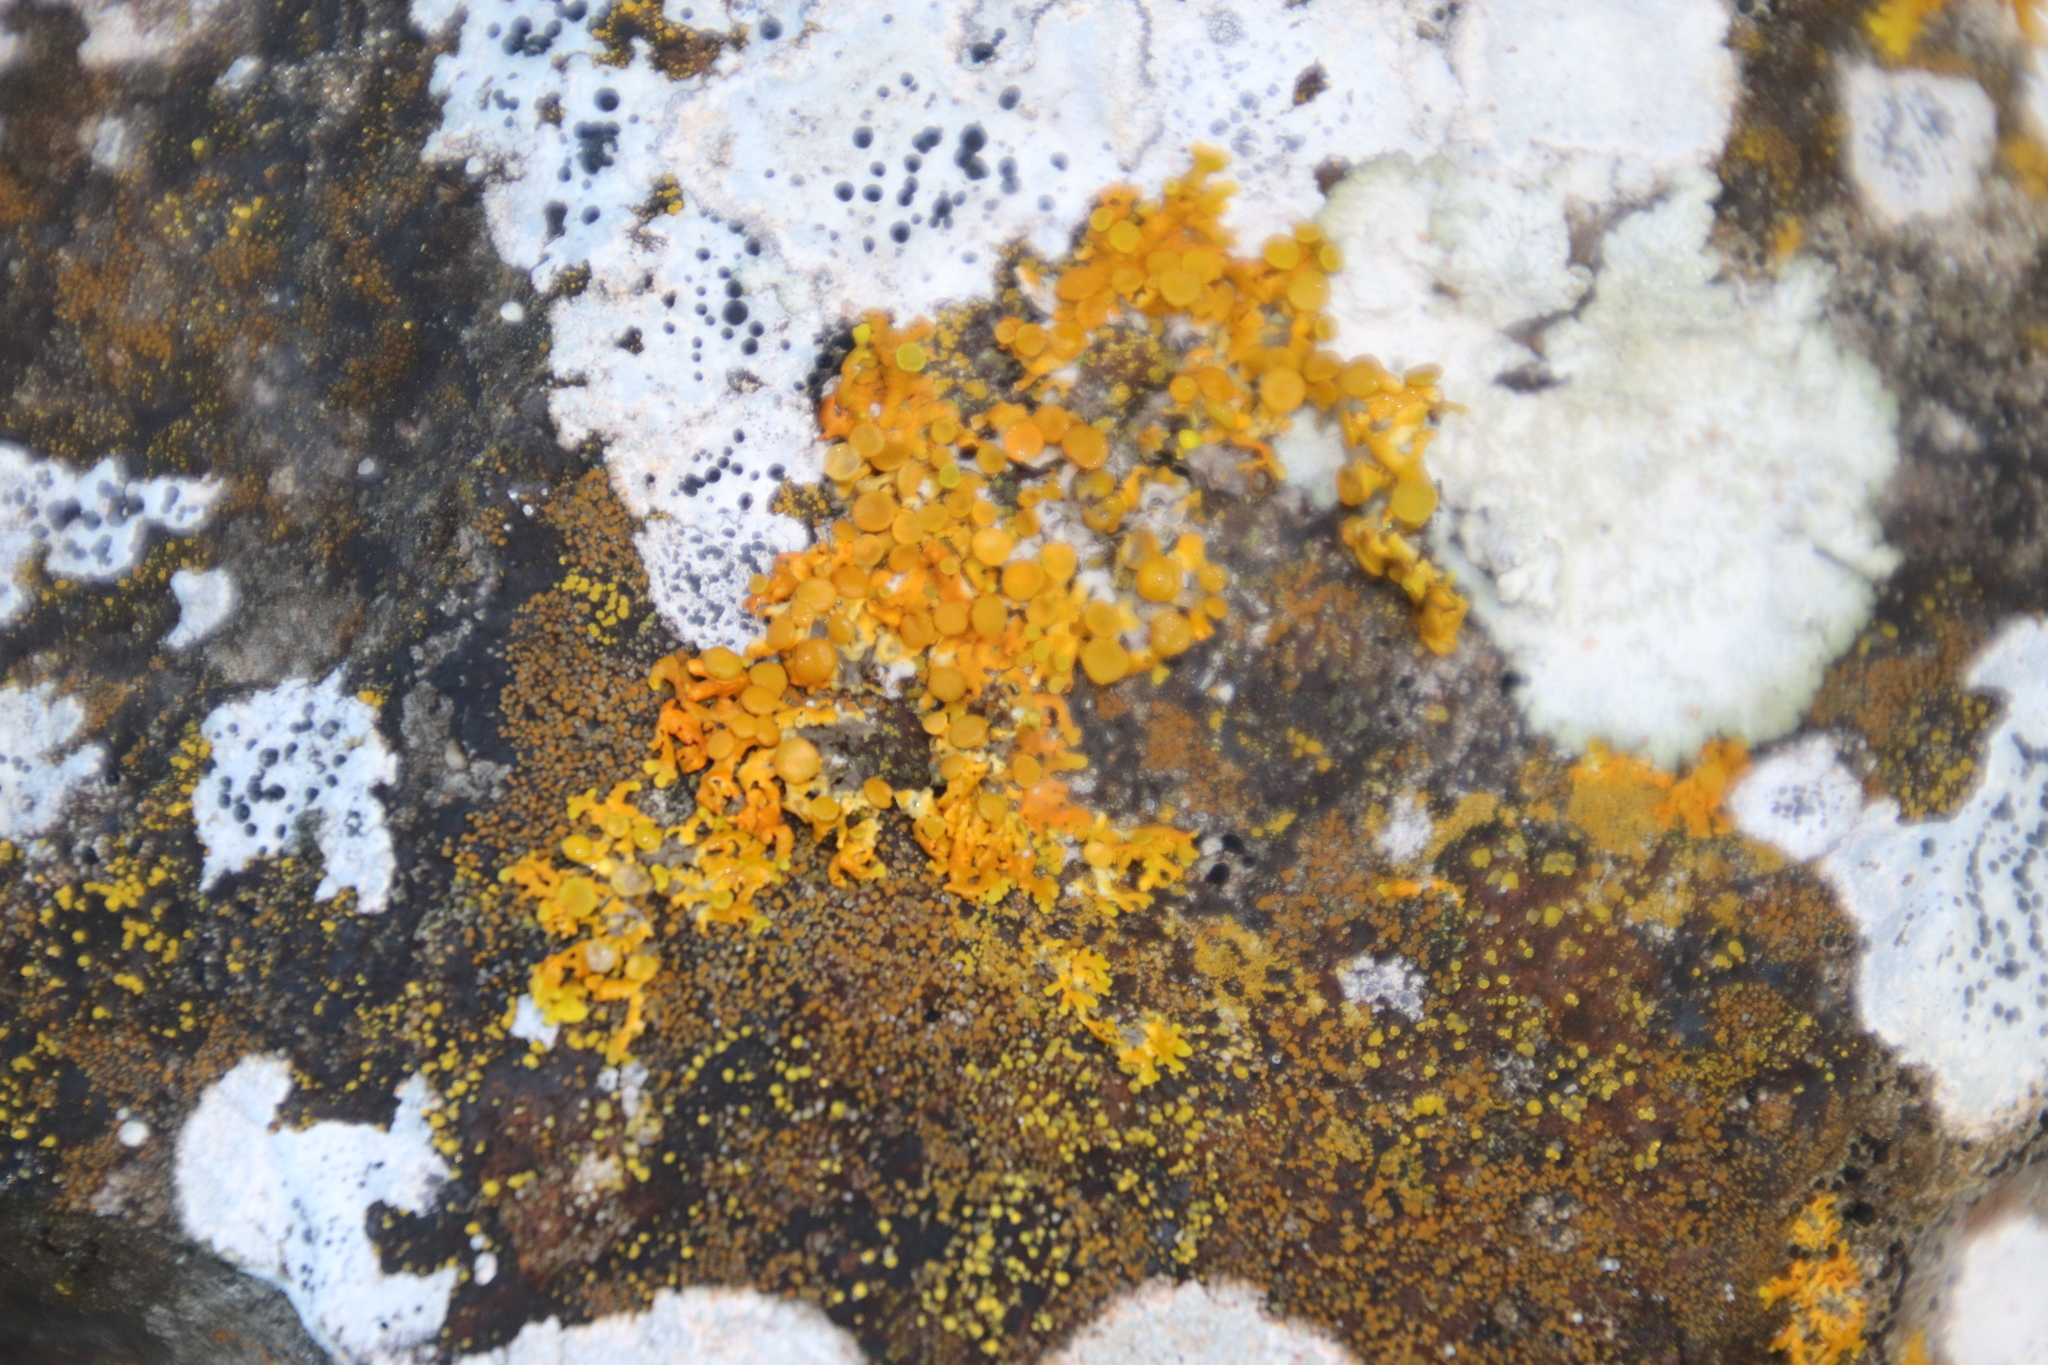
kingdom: Fungi
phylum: Ascomycota
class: Lecanoromycetes
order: Teloschistales
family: Teloschistaceae
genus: Dufourea
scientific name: Dufourea turbinata
